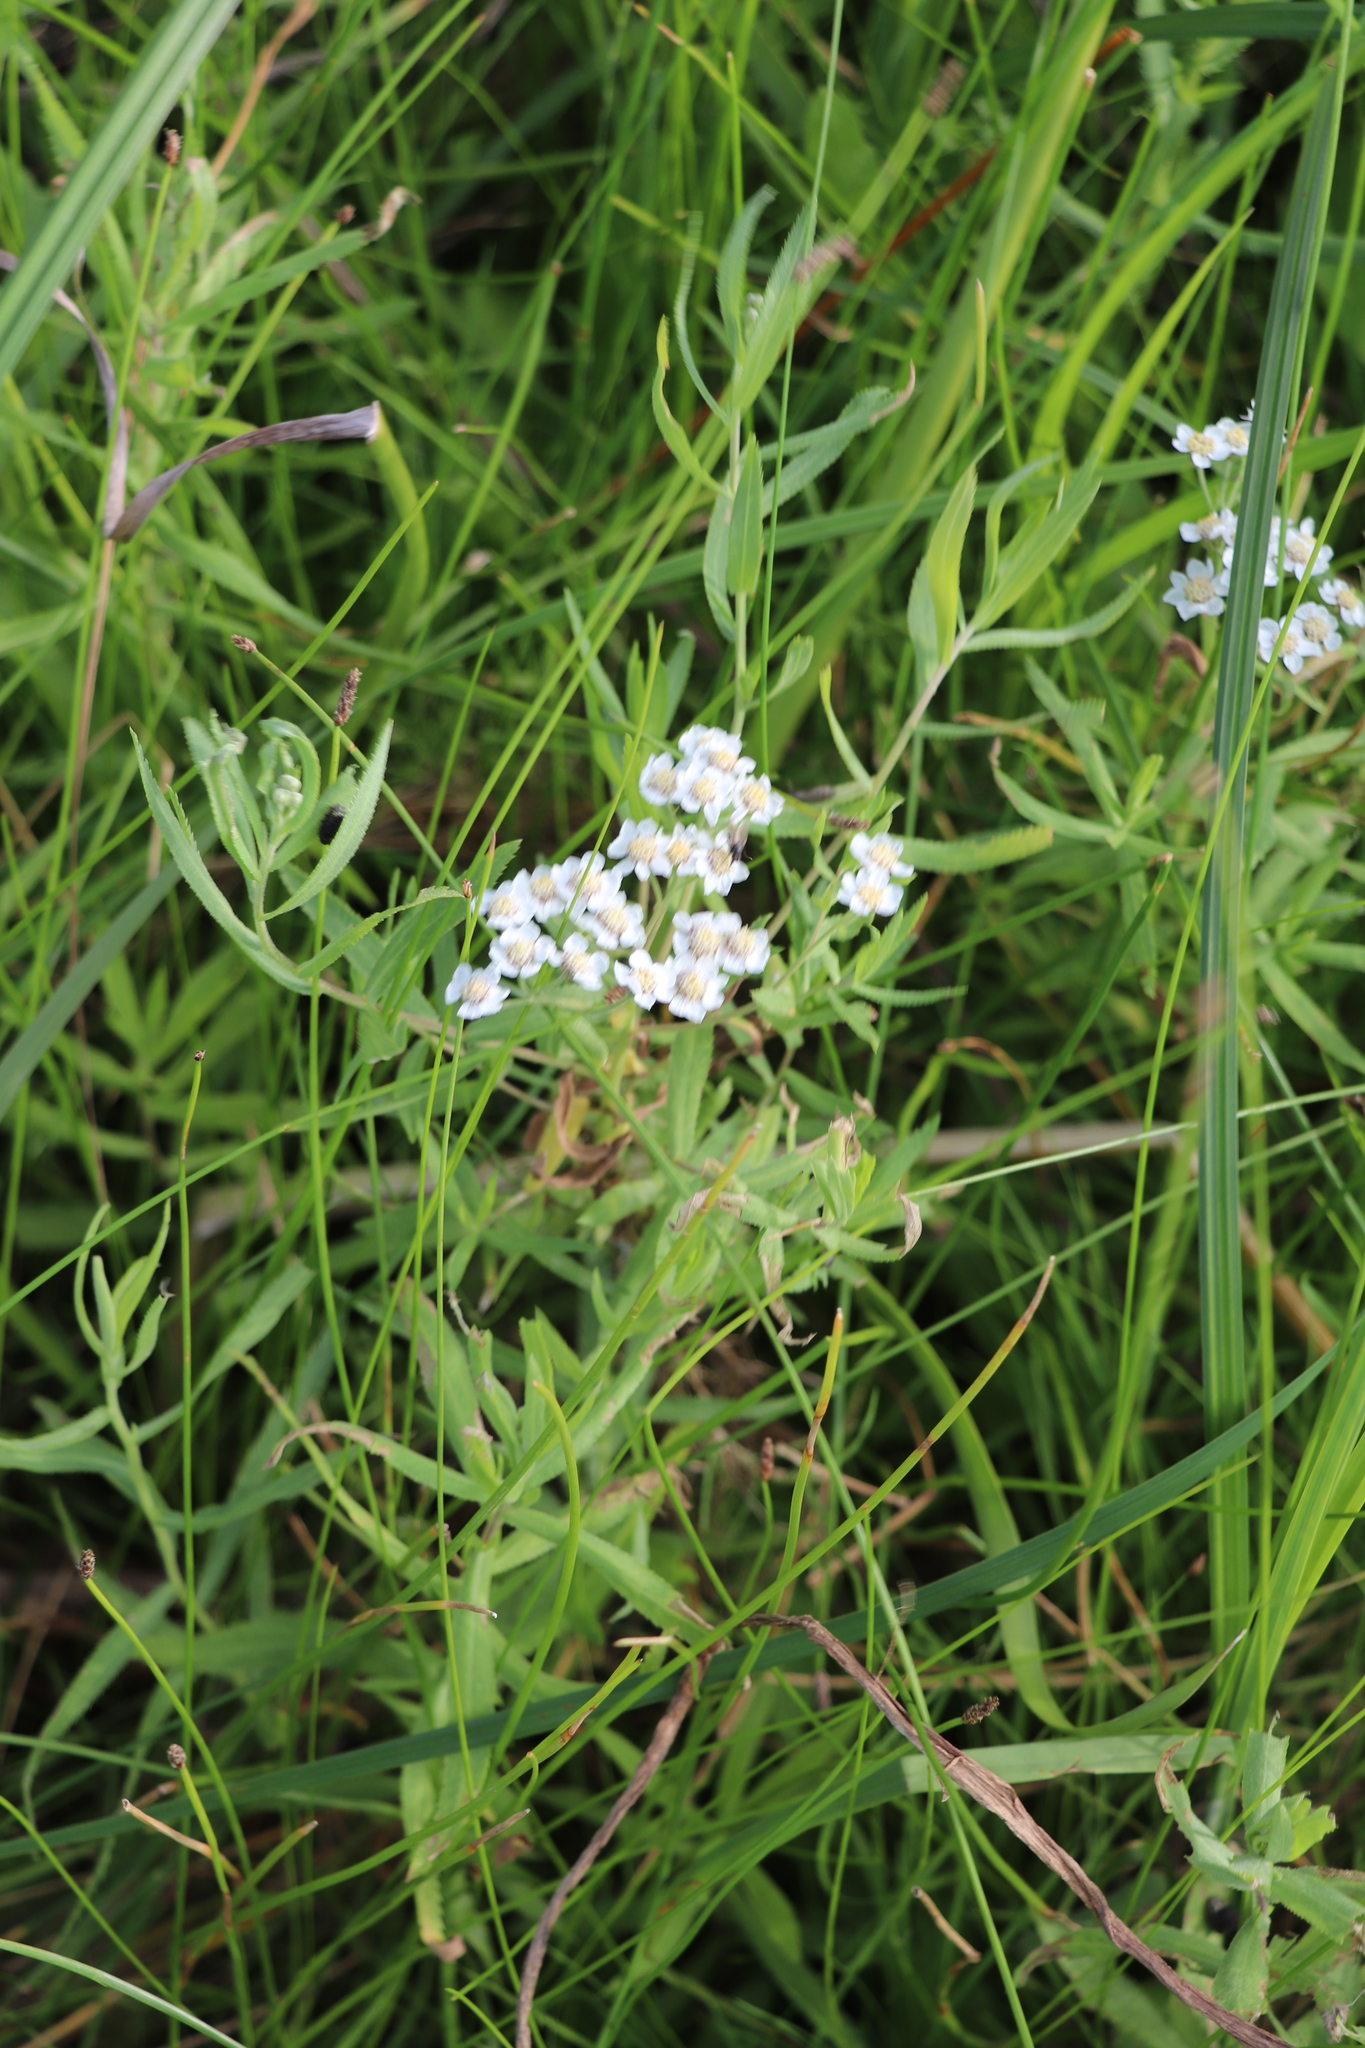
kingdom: Plantae
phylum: Tracheophyta
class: Magnoliopsida
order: Asterales
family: Asteraceae
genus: Achillea
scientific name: Achillea salicifolia
